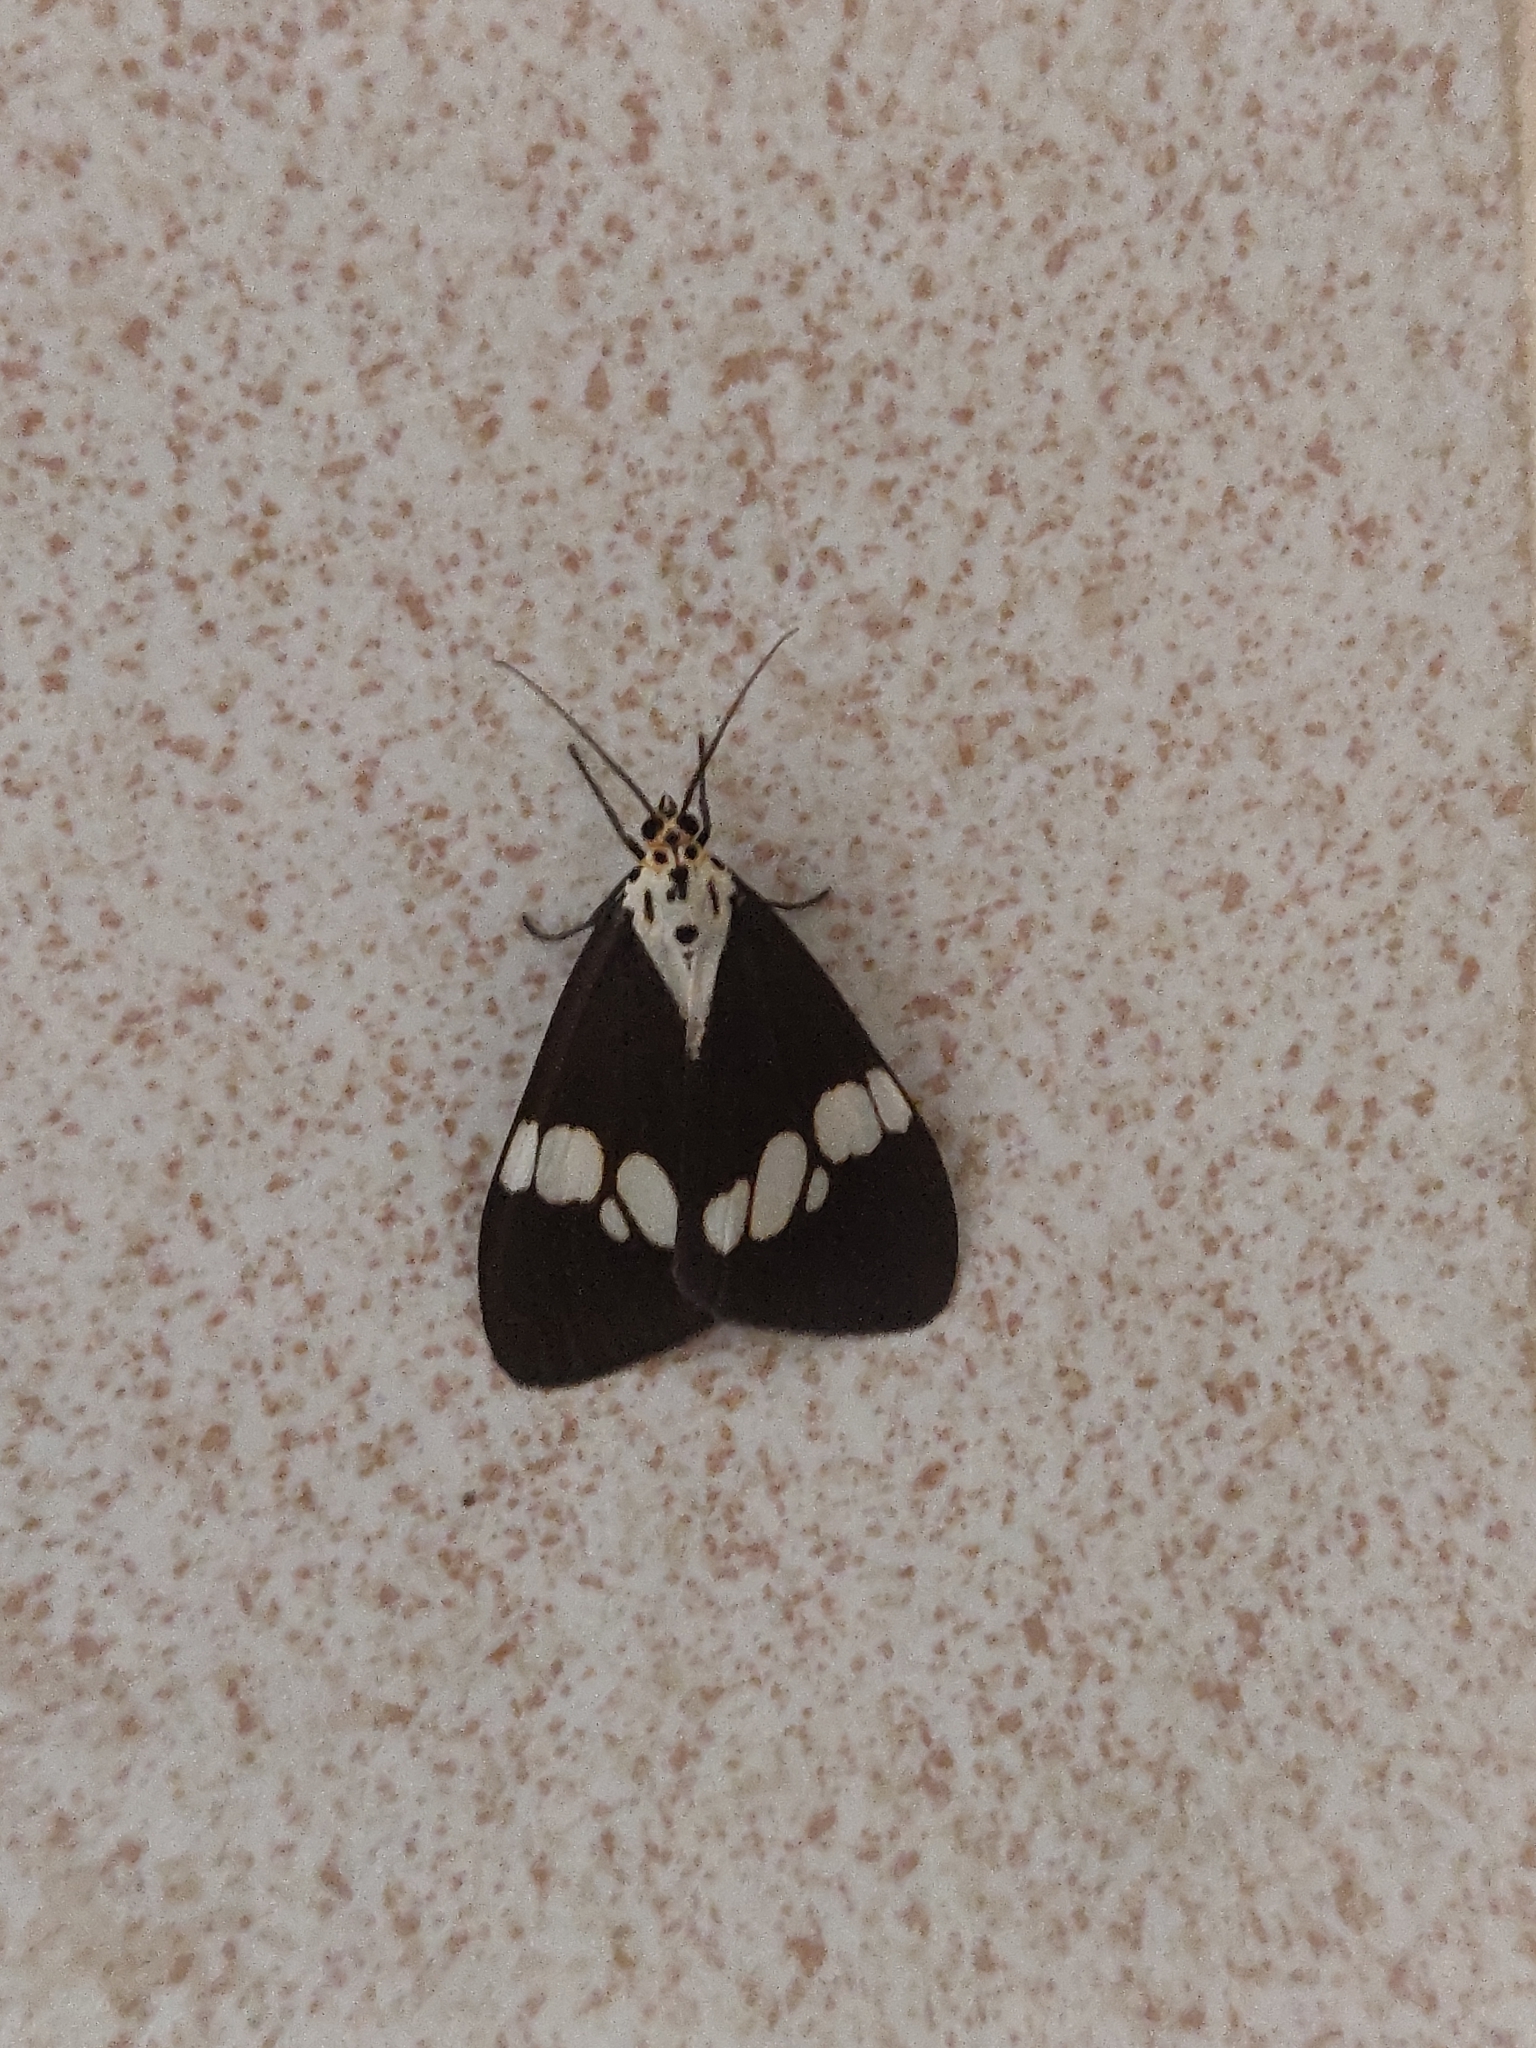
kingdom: Animalia
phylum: Arthropoda
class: Insecta
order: Lepidoptera
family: Erebidae
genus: Nyctemera
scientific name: Nyctemera lacticinia
